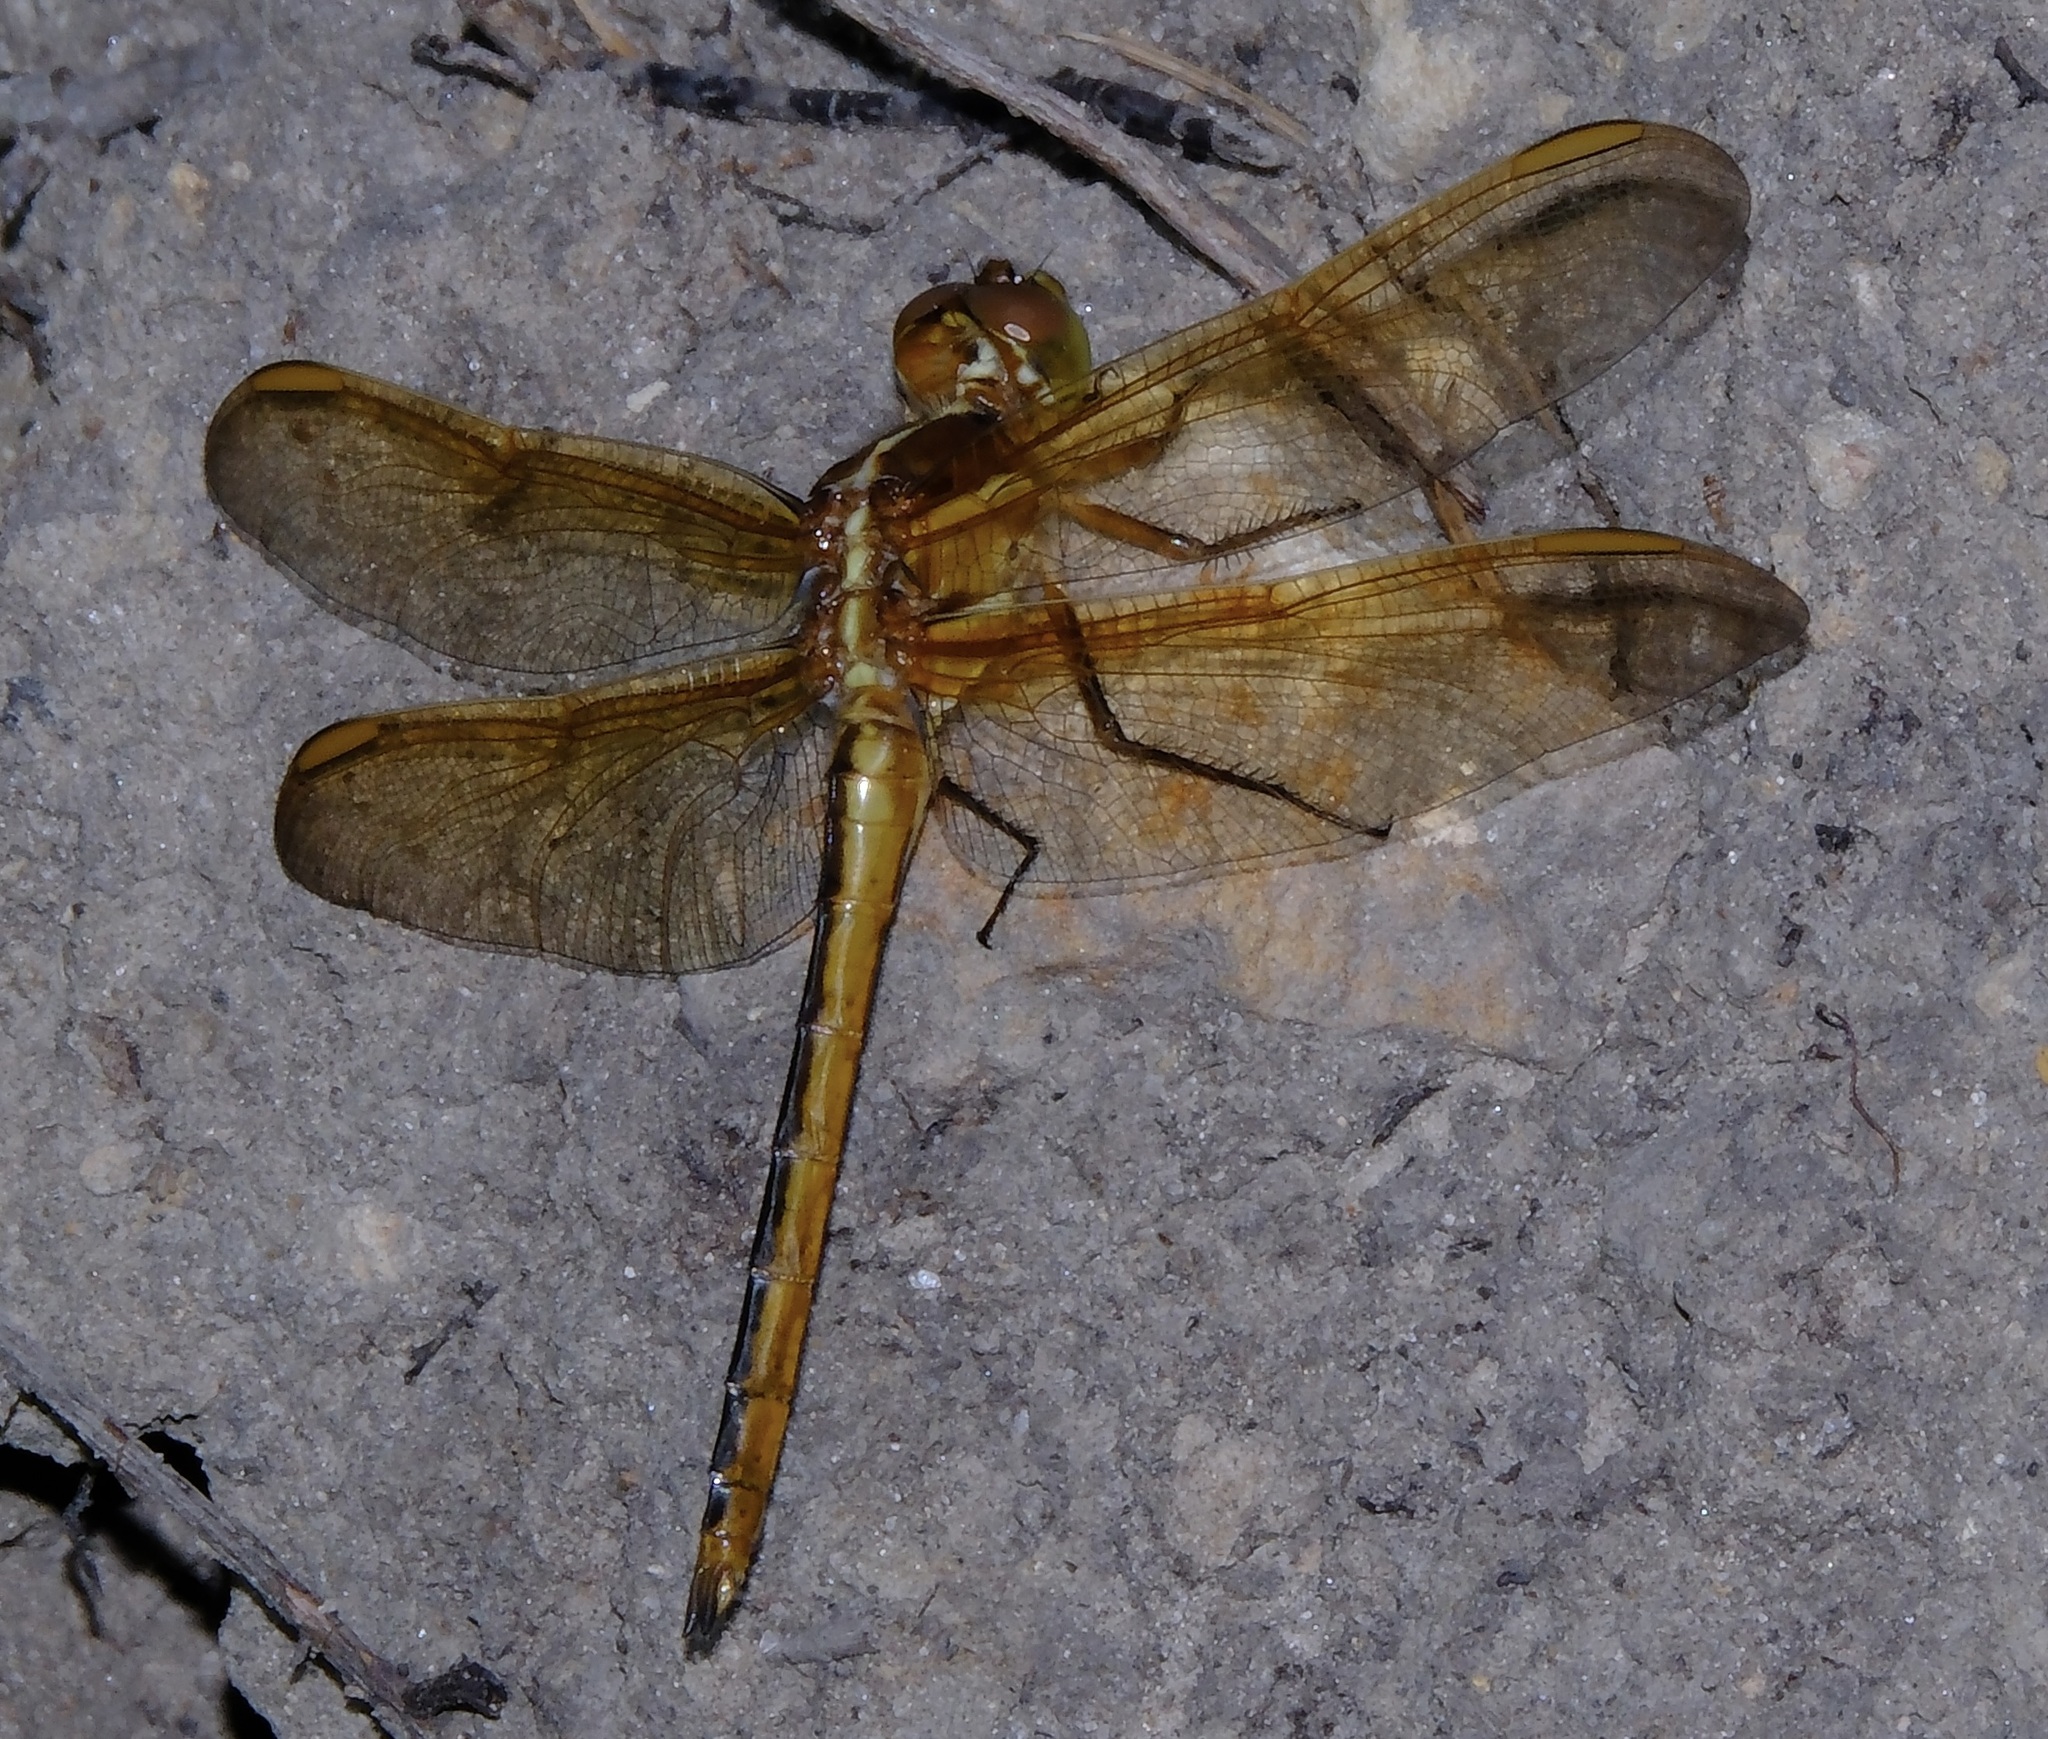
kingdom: Animalia
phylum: Arthropoda
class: Insecta
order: Odonata
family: Libellulidae
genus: Libellula
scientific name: Libellula auripennis
